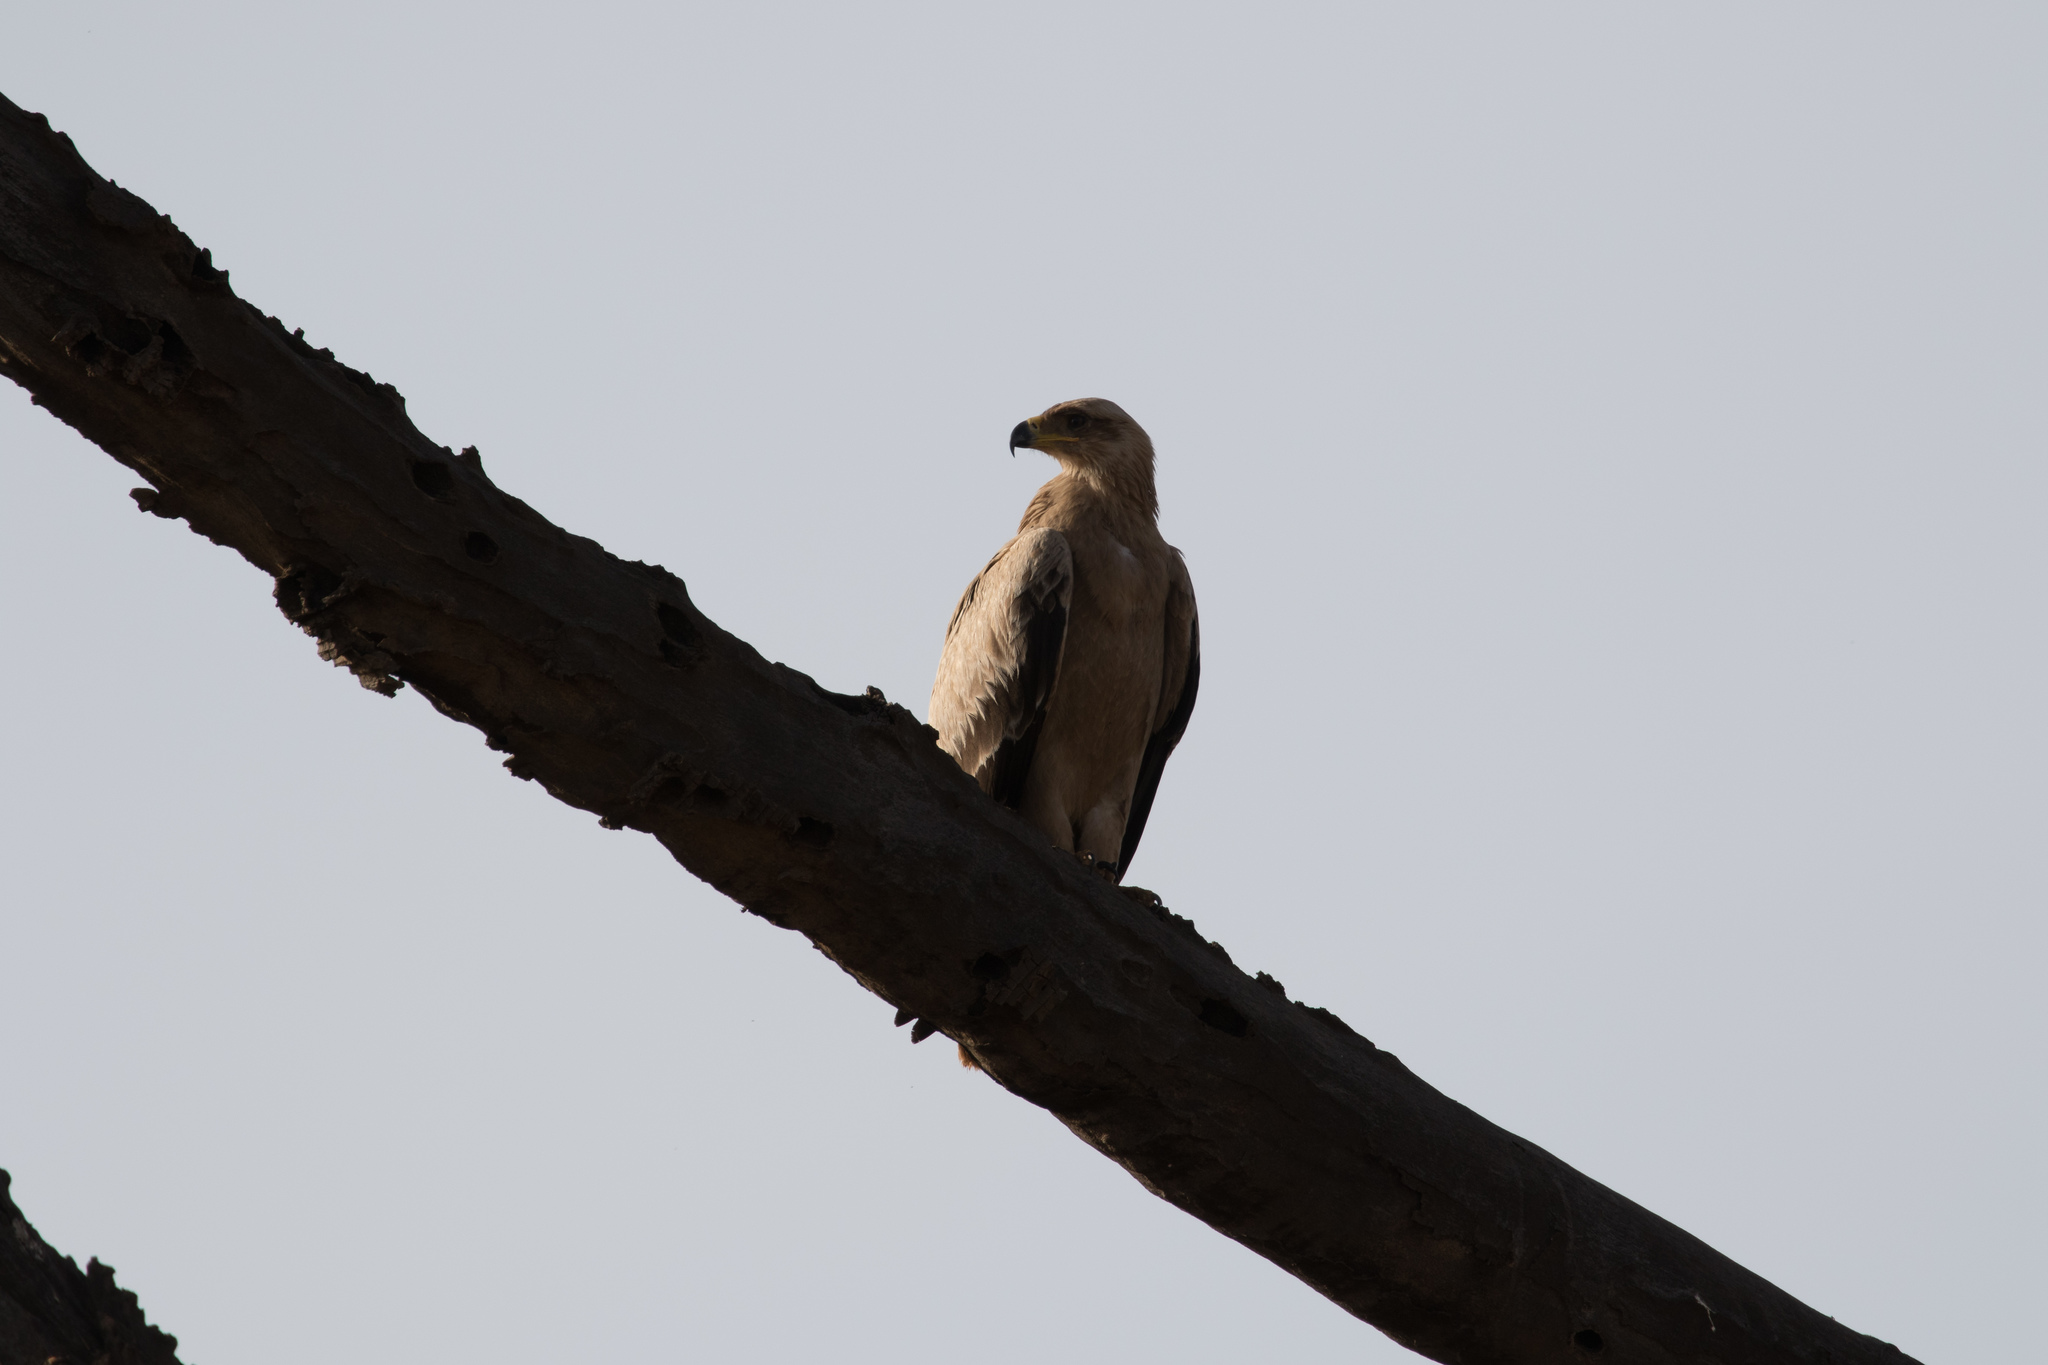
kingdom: Animalia
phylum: Chordata
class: Aves
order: Accipitriformes
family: Accipitridae
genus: Aquila
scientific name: Aquila rapax
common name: Tawny eagle
